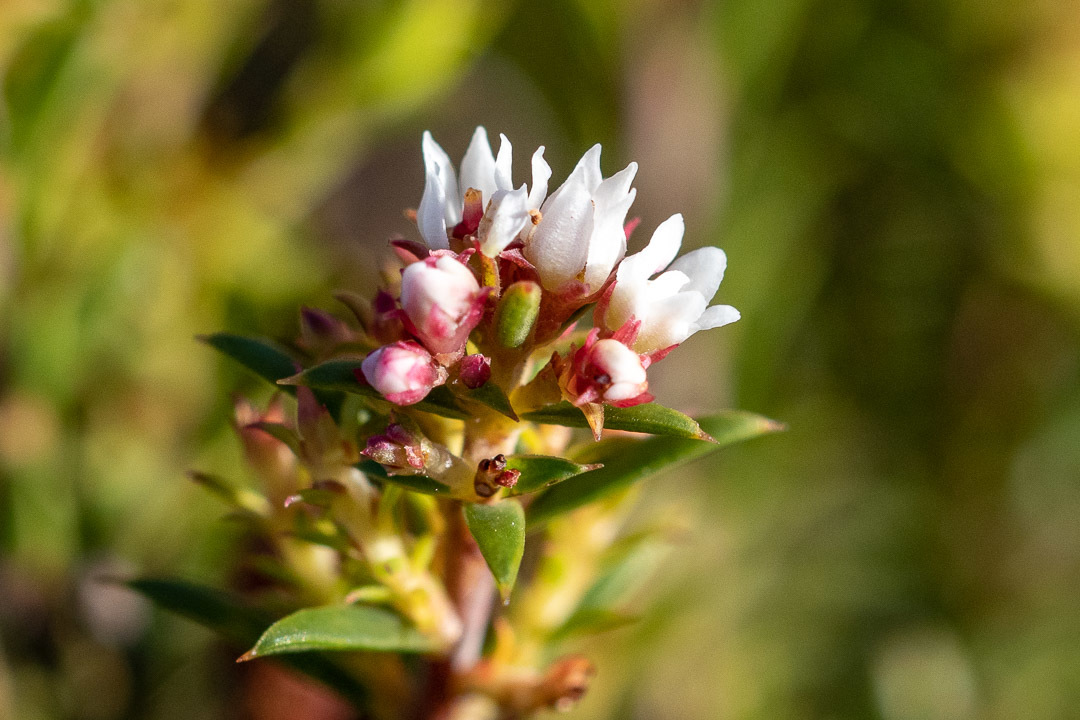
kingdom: Plantae
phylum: Tracheophyta
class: Magnoliopsida
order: Sapindales
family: Rutaceae
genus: Diosma
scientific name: Diosma hirsuta
